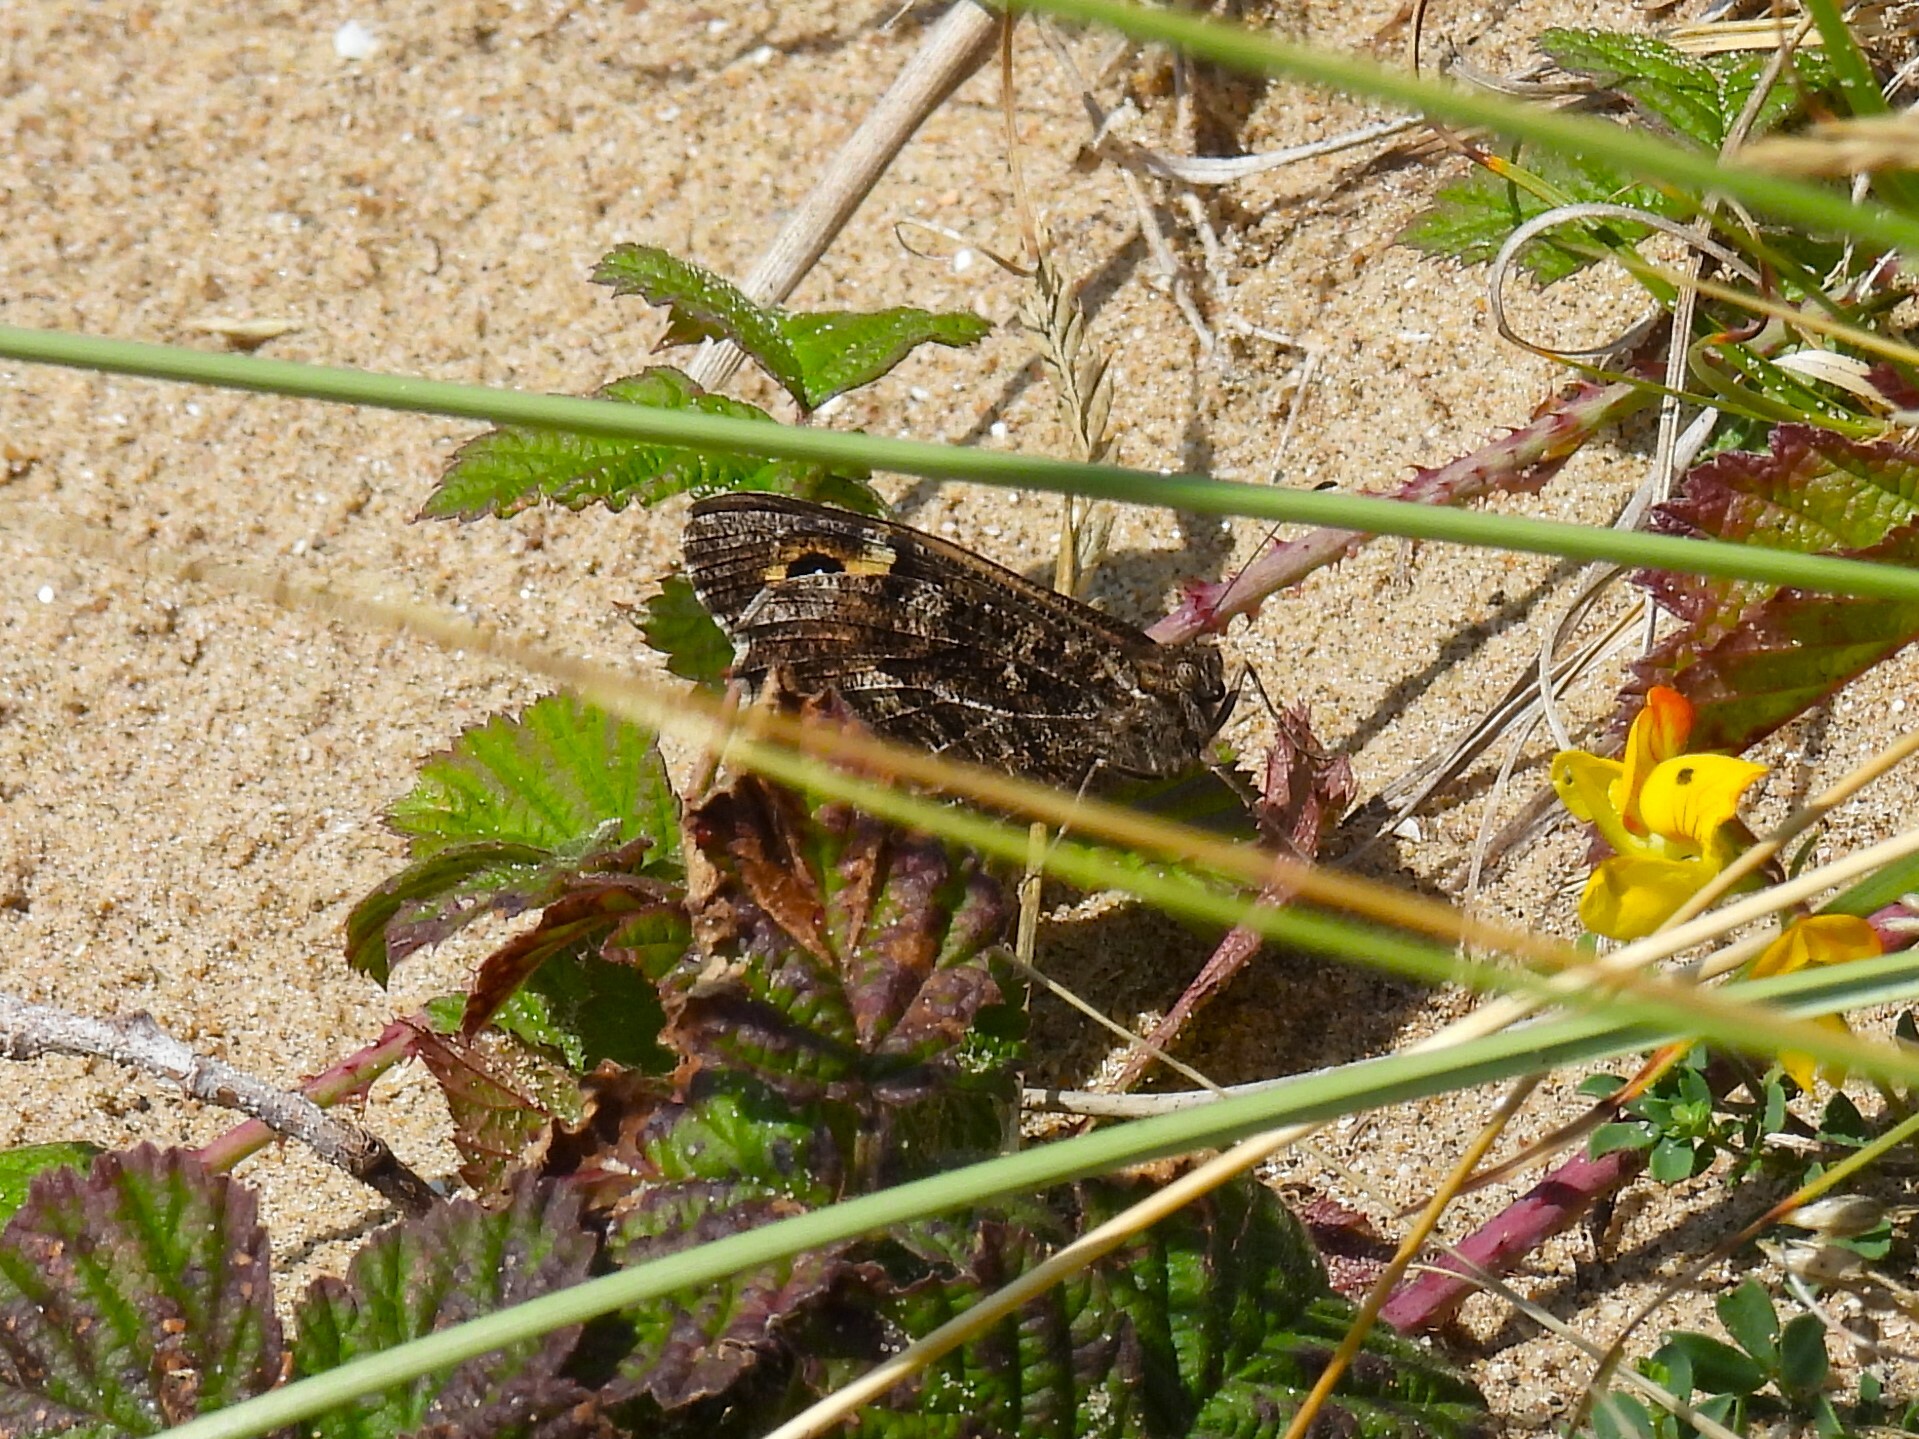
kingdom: Animalia
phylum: Arthropoda
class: Insecta
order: Lepidoptera
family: Nymphalidae
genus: Hipparchia
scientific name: Hipparchia semele
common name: Grayling
